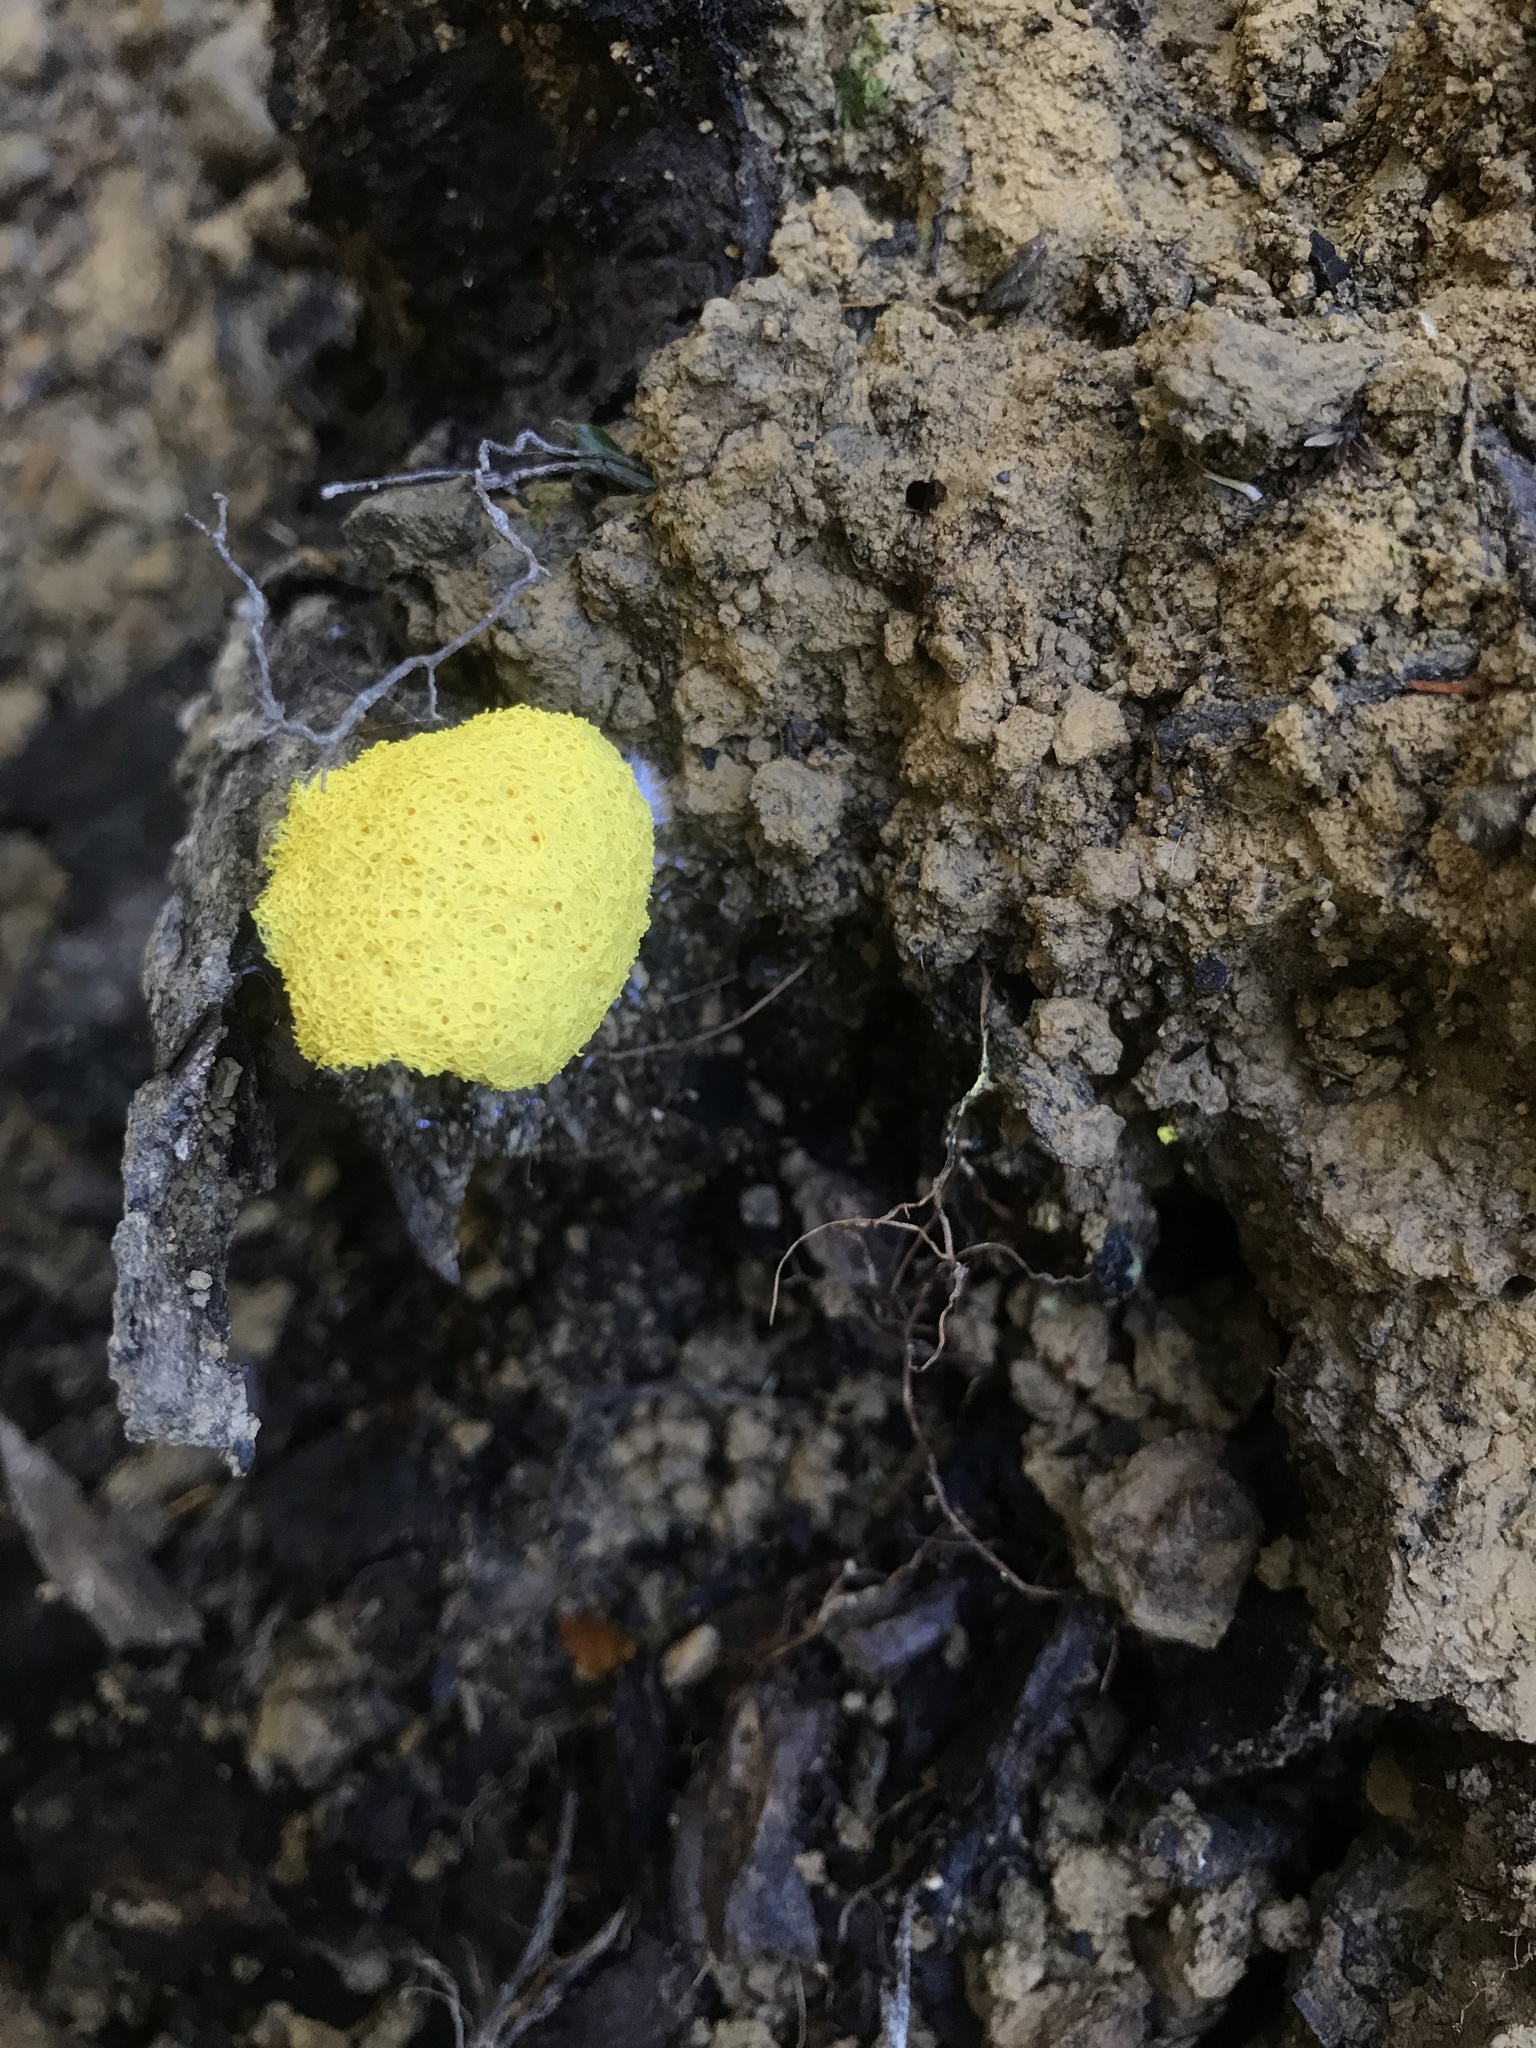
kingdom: Protozoa
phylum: Mycetozoa
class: Myxomycetes
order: Physarales
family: Physaraceae
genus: Fuligo
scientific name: Fuligo septica
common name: Dog vomit slime mold
